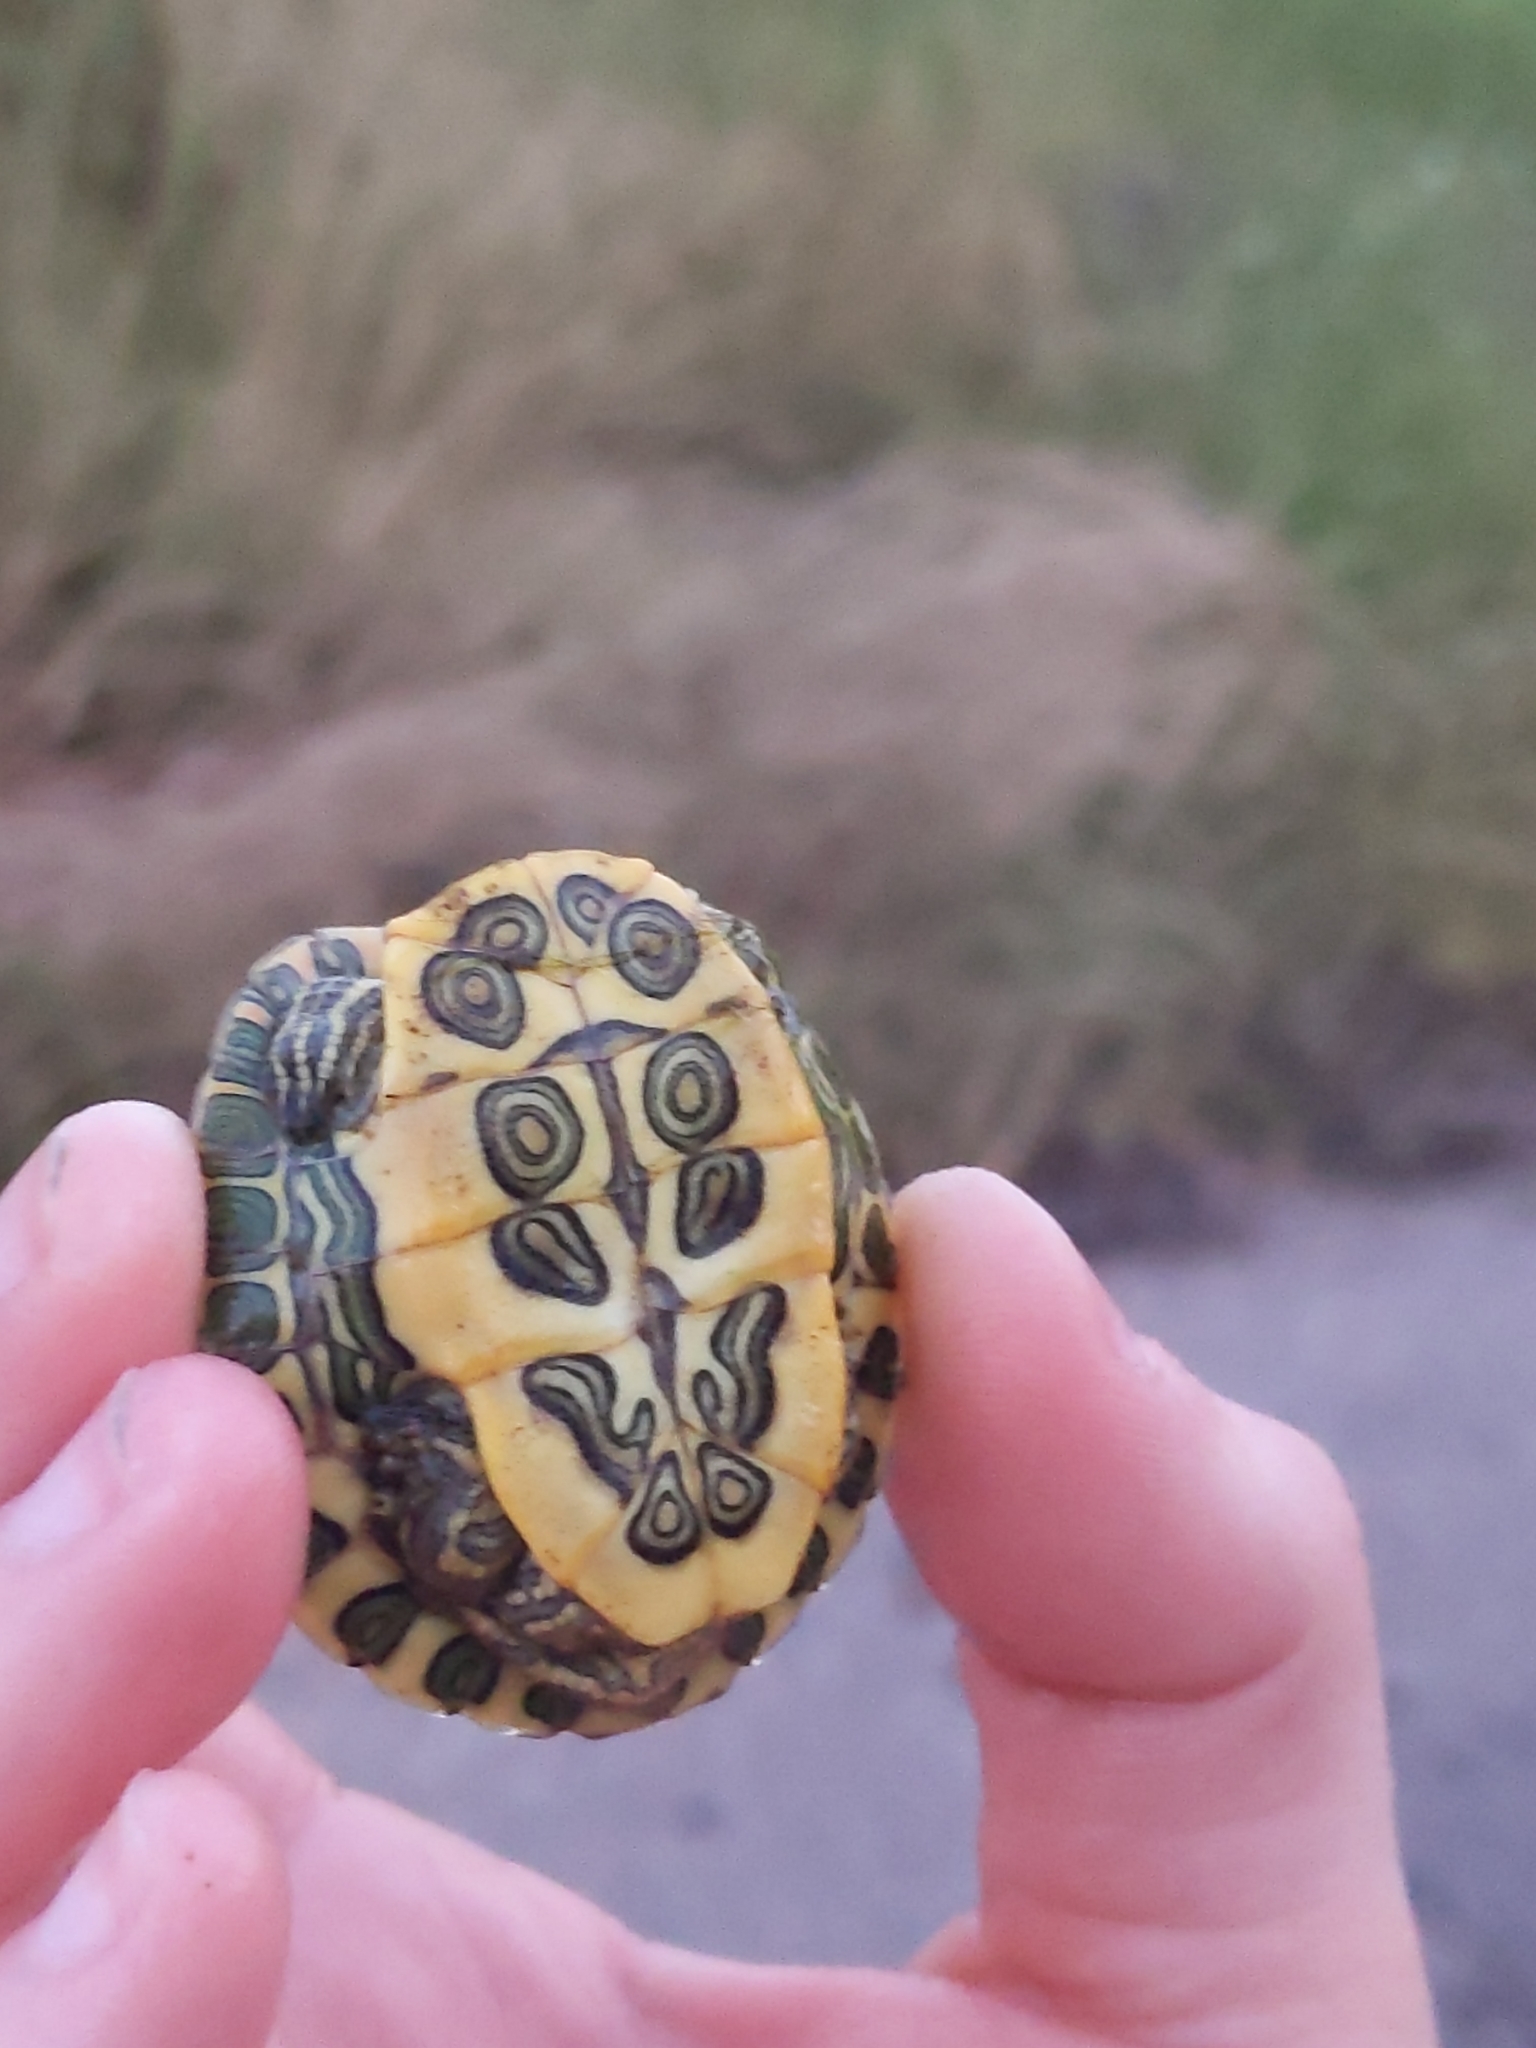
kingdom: Animalia
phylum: Chordata
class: Testudines
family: Emydidae
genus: Trachemys
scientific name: Trachemys scripta
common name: Slider
